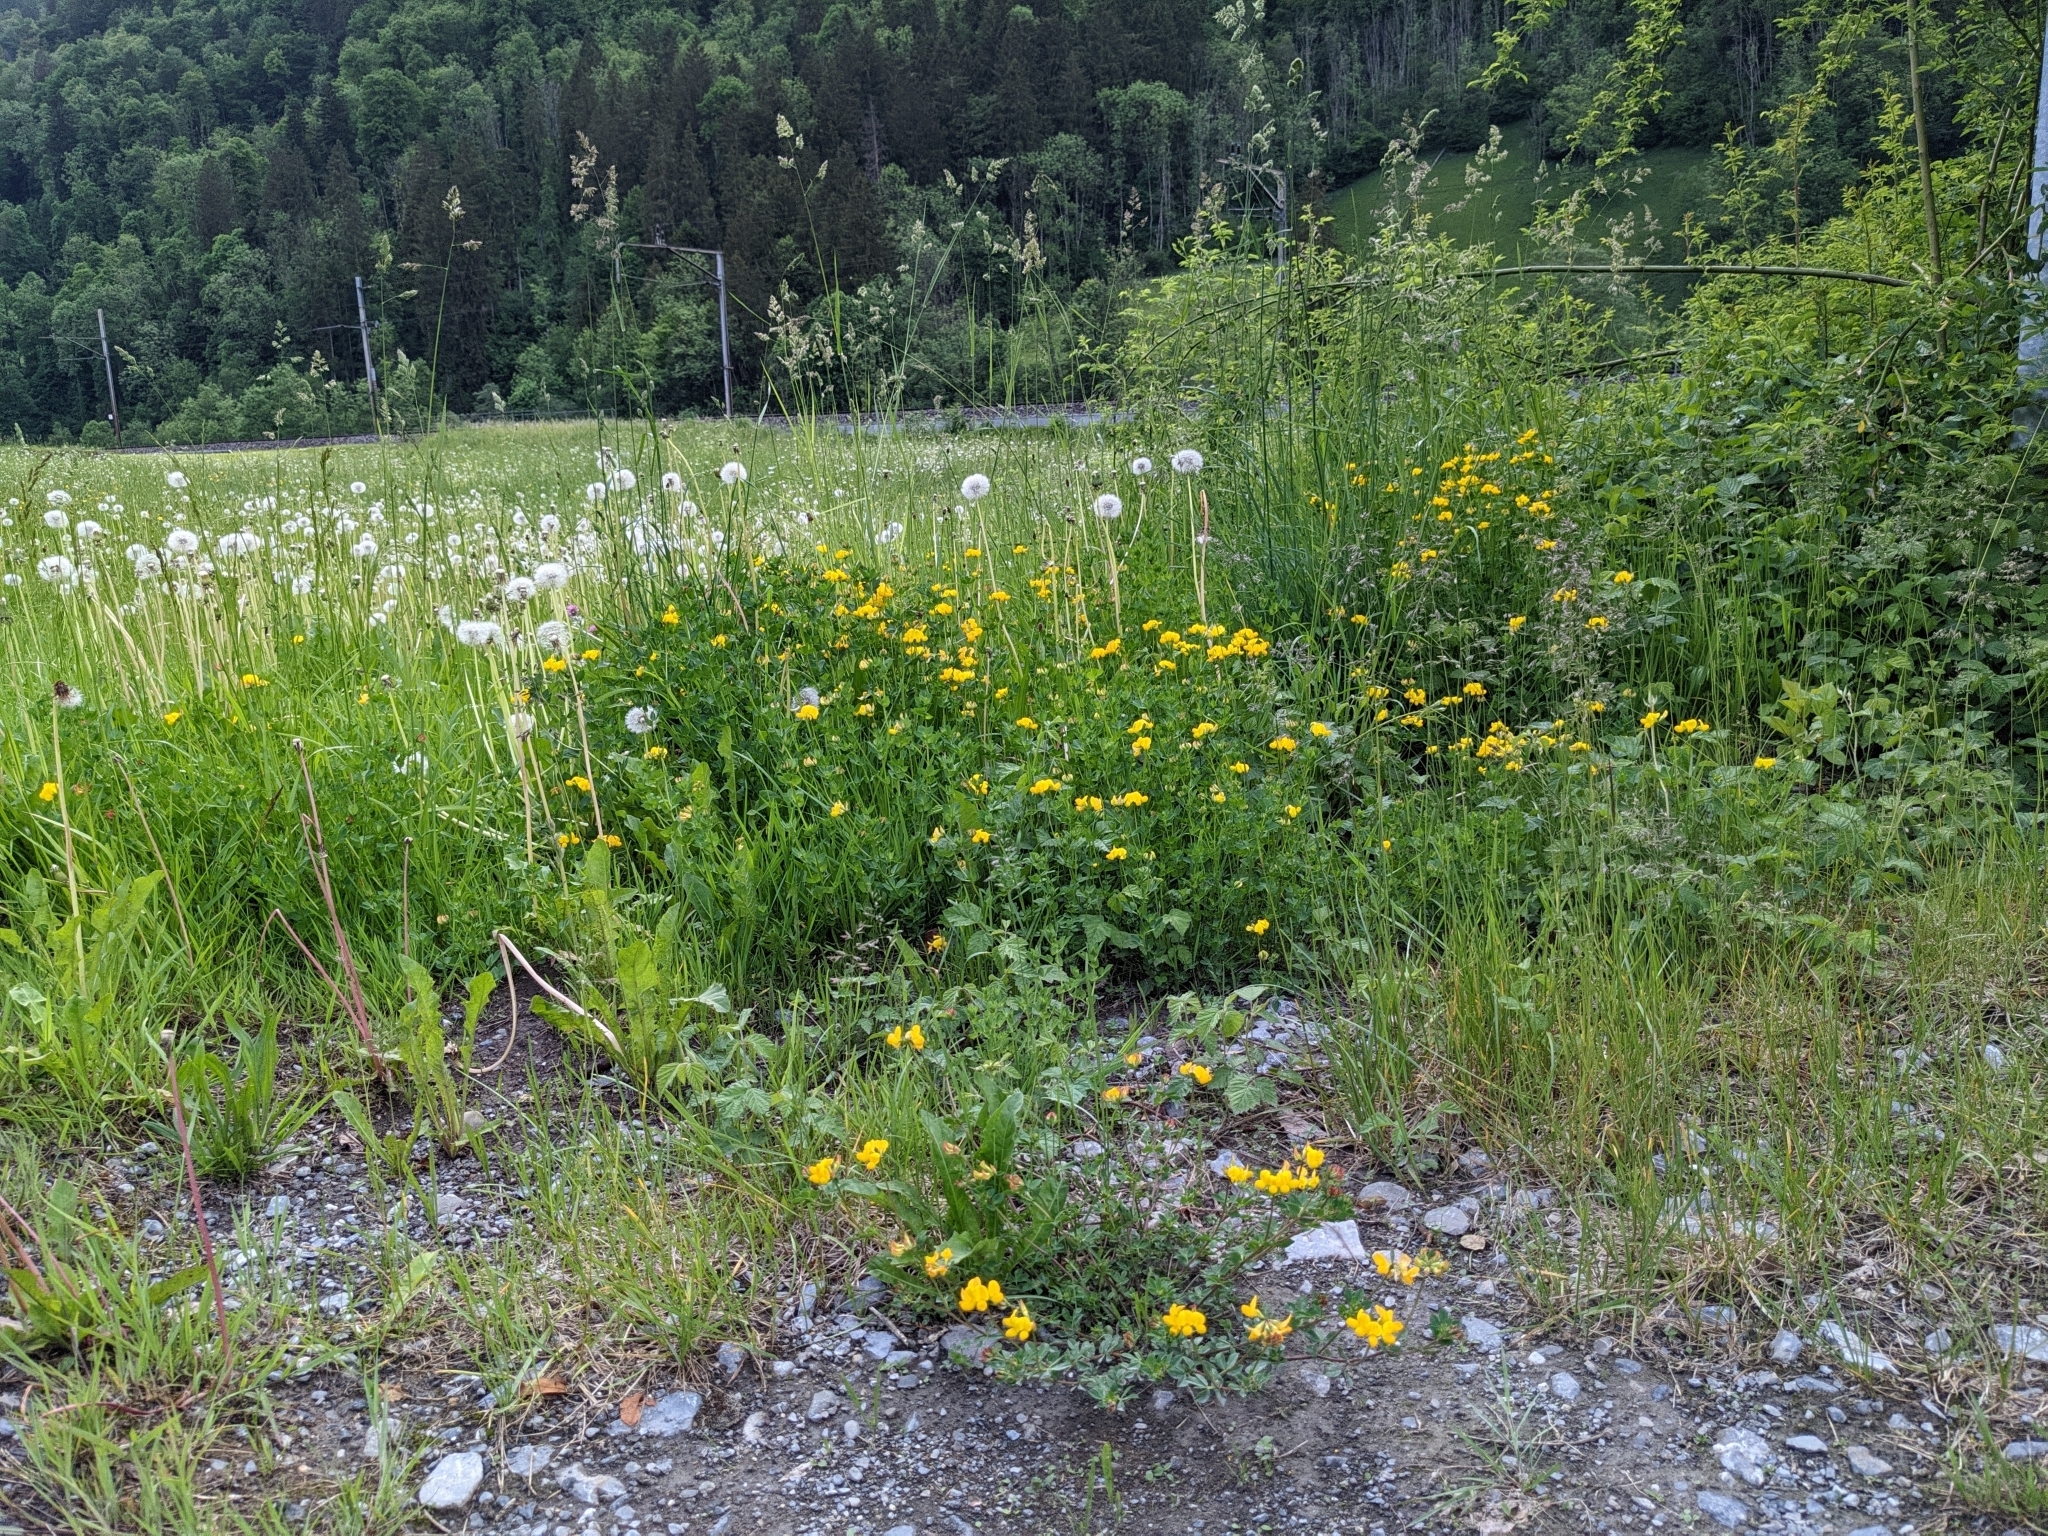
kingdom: Plantae
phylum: Tracheophyta
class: Magnoliopsida
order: Fabales
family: Fabaceae
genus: Lotus
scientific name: Lotus corniculatus
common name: Common bird's-foot-trefoil
